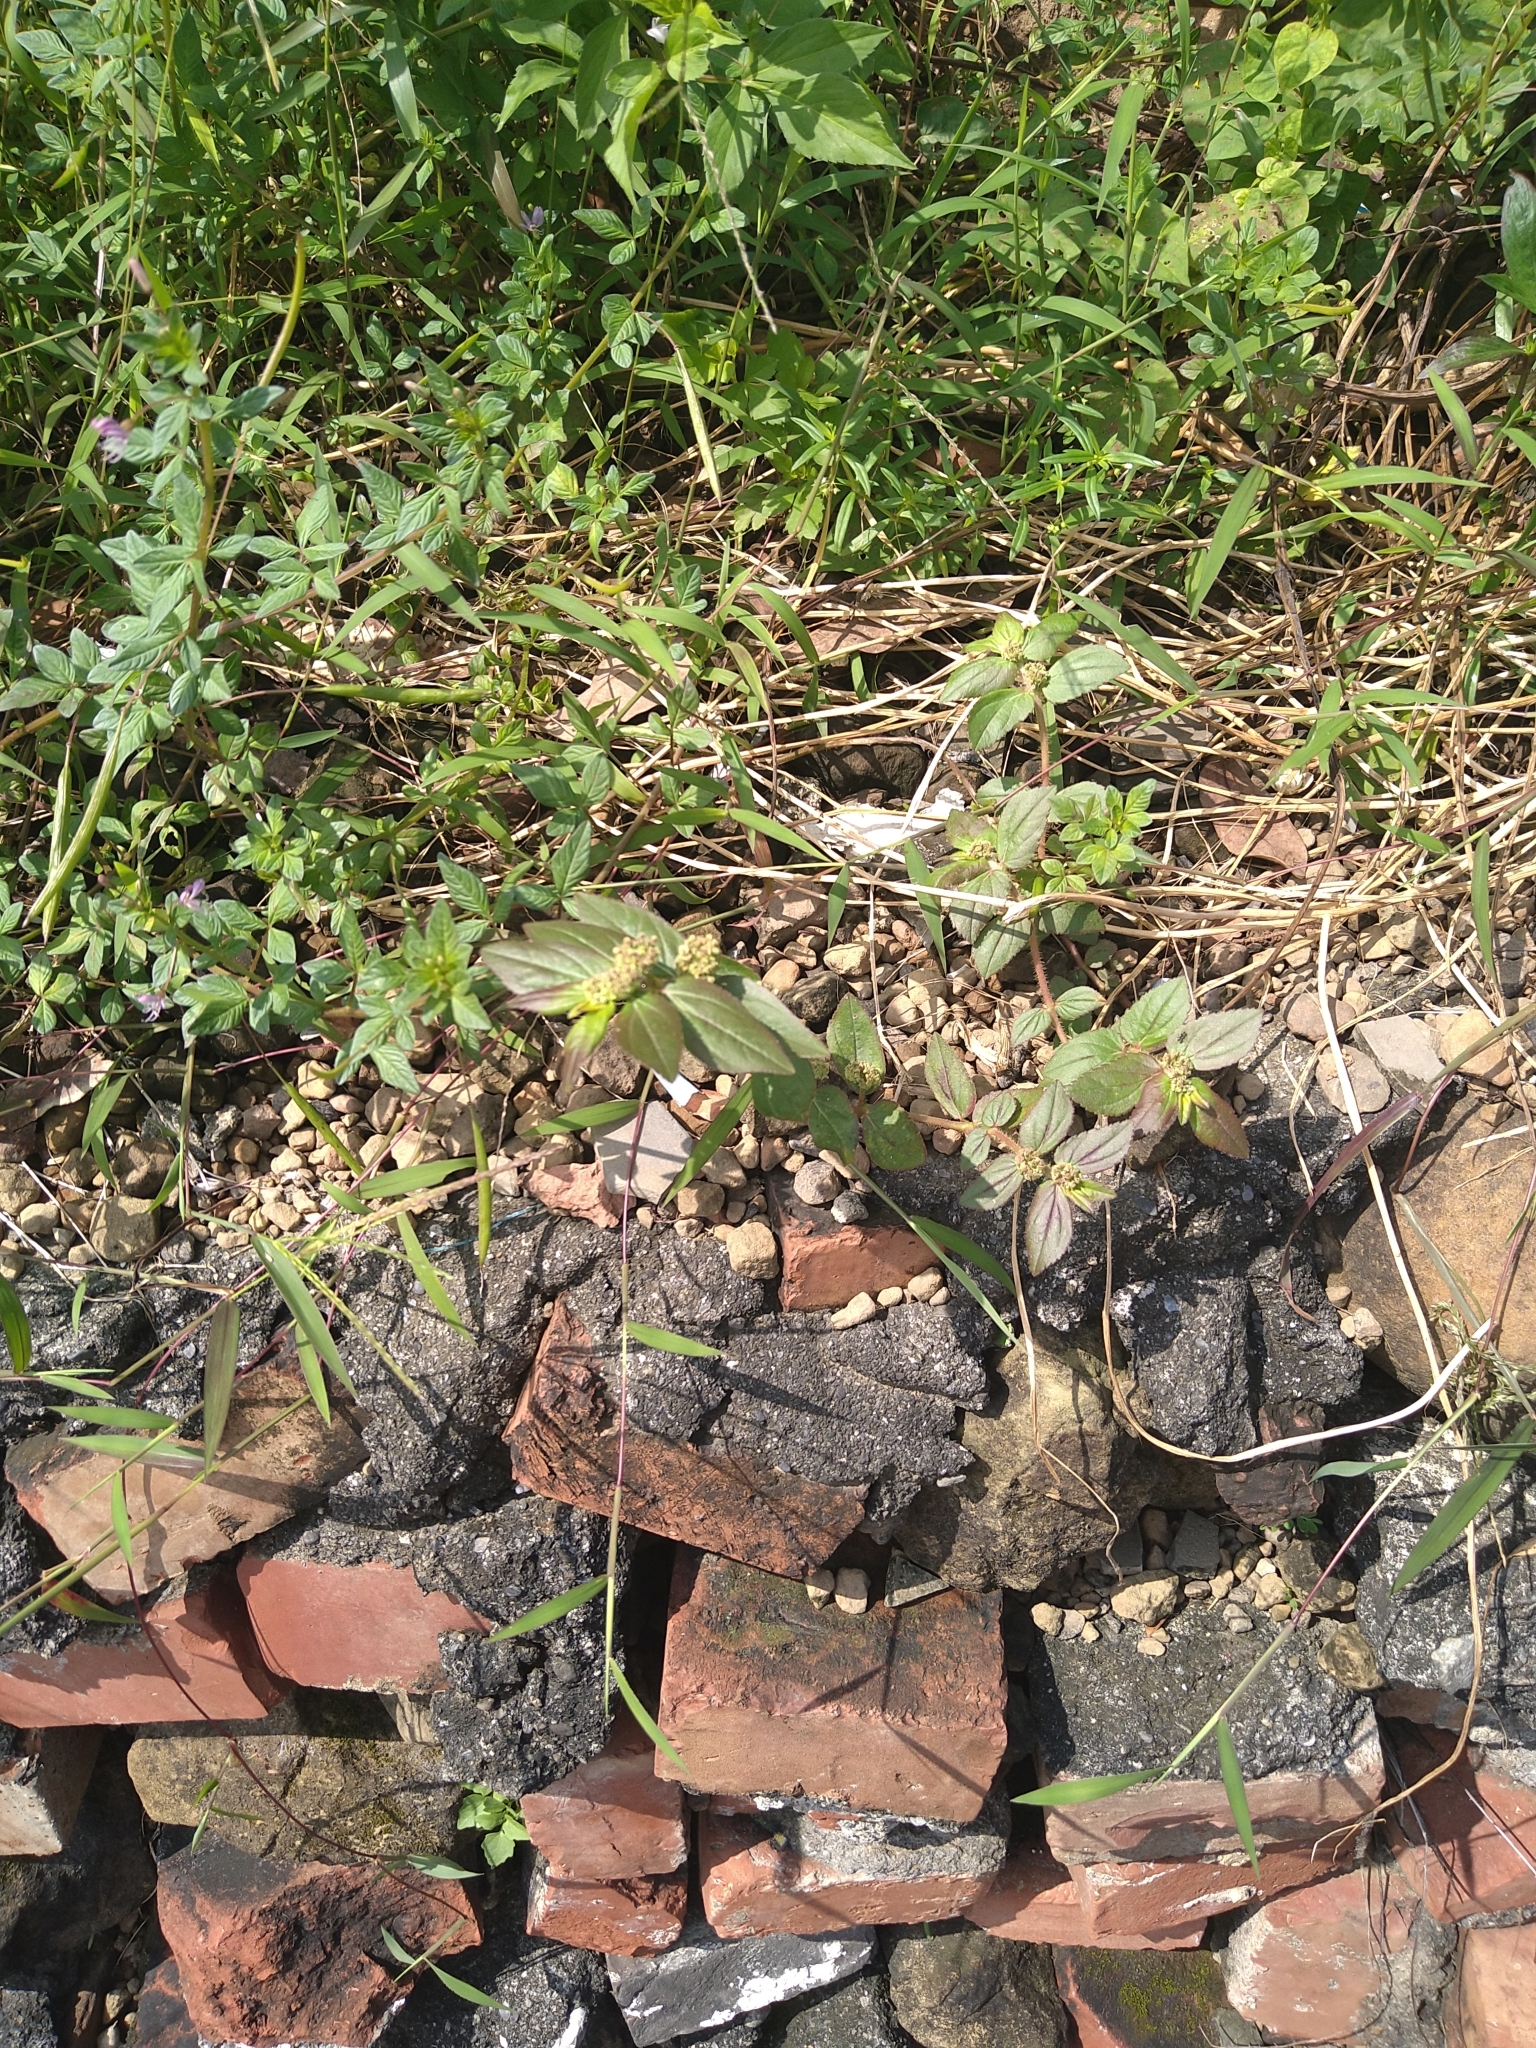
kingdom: Plantae
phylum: Tracheophyta
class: Magnoliopsida
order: Malpighiales
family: Euphorbiaceae
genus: Euphorbia
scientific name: Euphorbia hirta
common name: Pillpod sandmat
